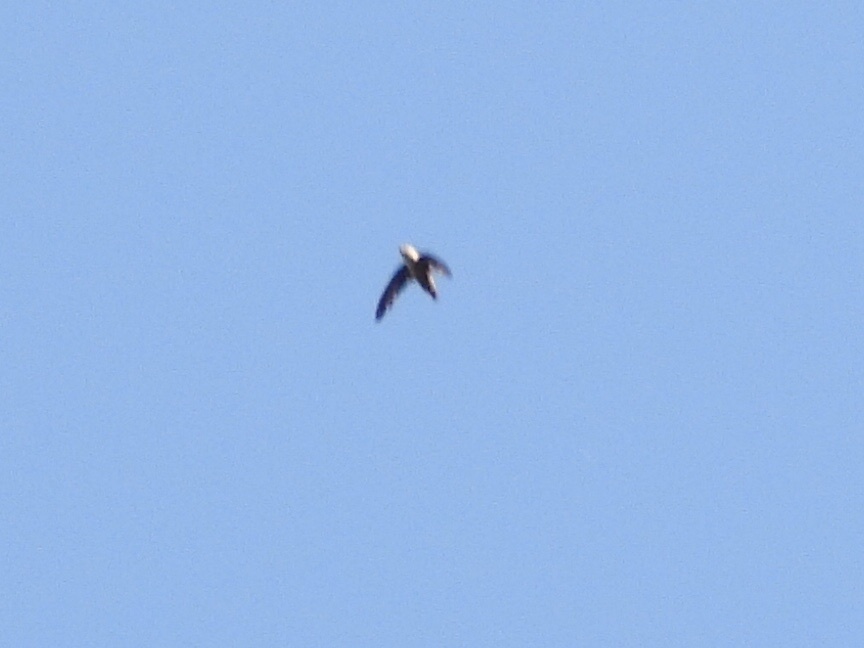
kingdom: Animalia
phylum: Chordata
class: Aves
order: Apodiformes
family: Apodidae
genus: Chaetura
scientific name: Chaetura vauxi
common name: Vaux's swift
